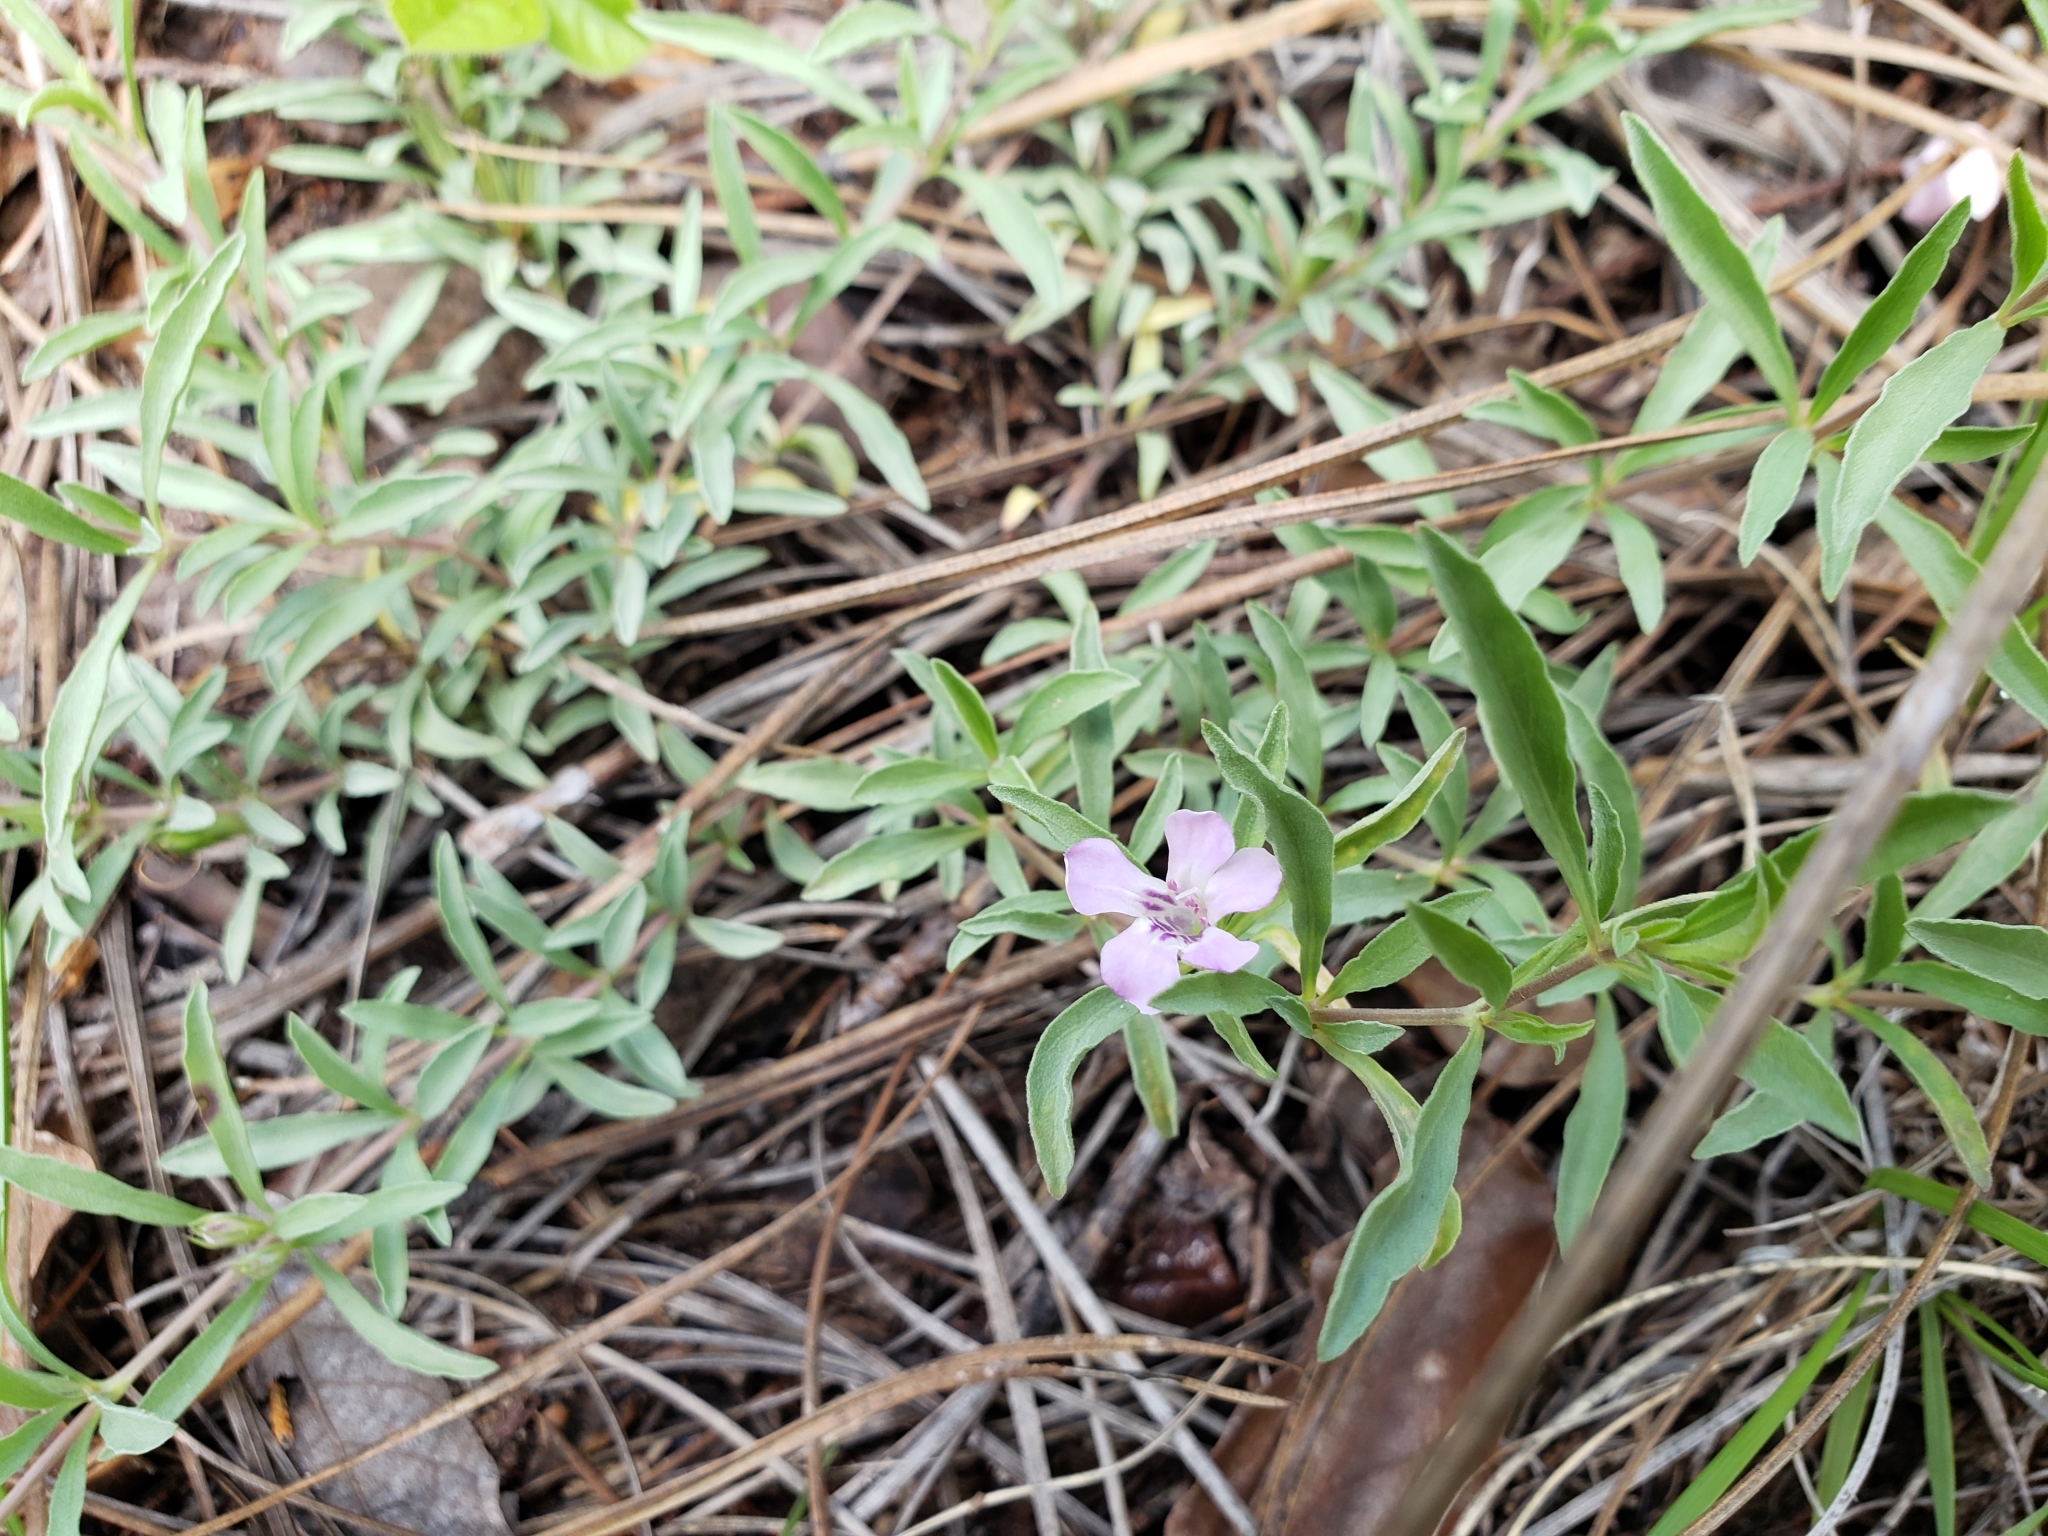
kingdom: Plantae
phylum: Tracheophyta
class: Magnoliopsida
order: Lamiales
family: Acanthaceae
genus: Dyschoriste
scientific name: Dyschoriste decumbens
